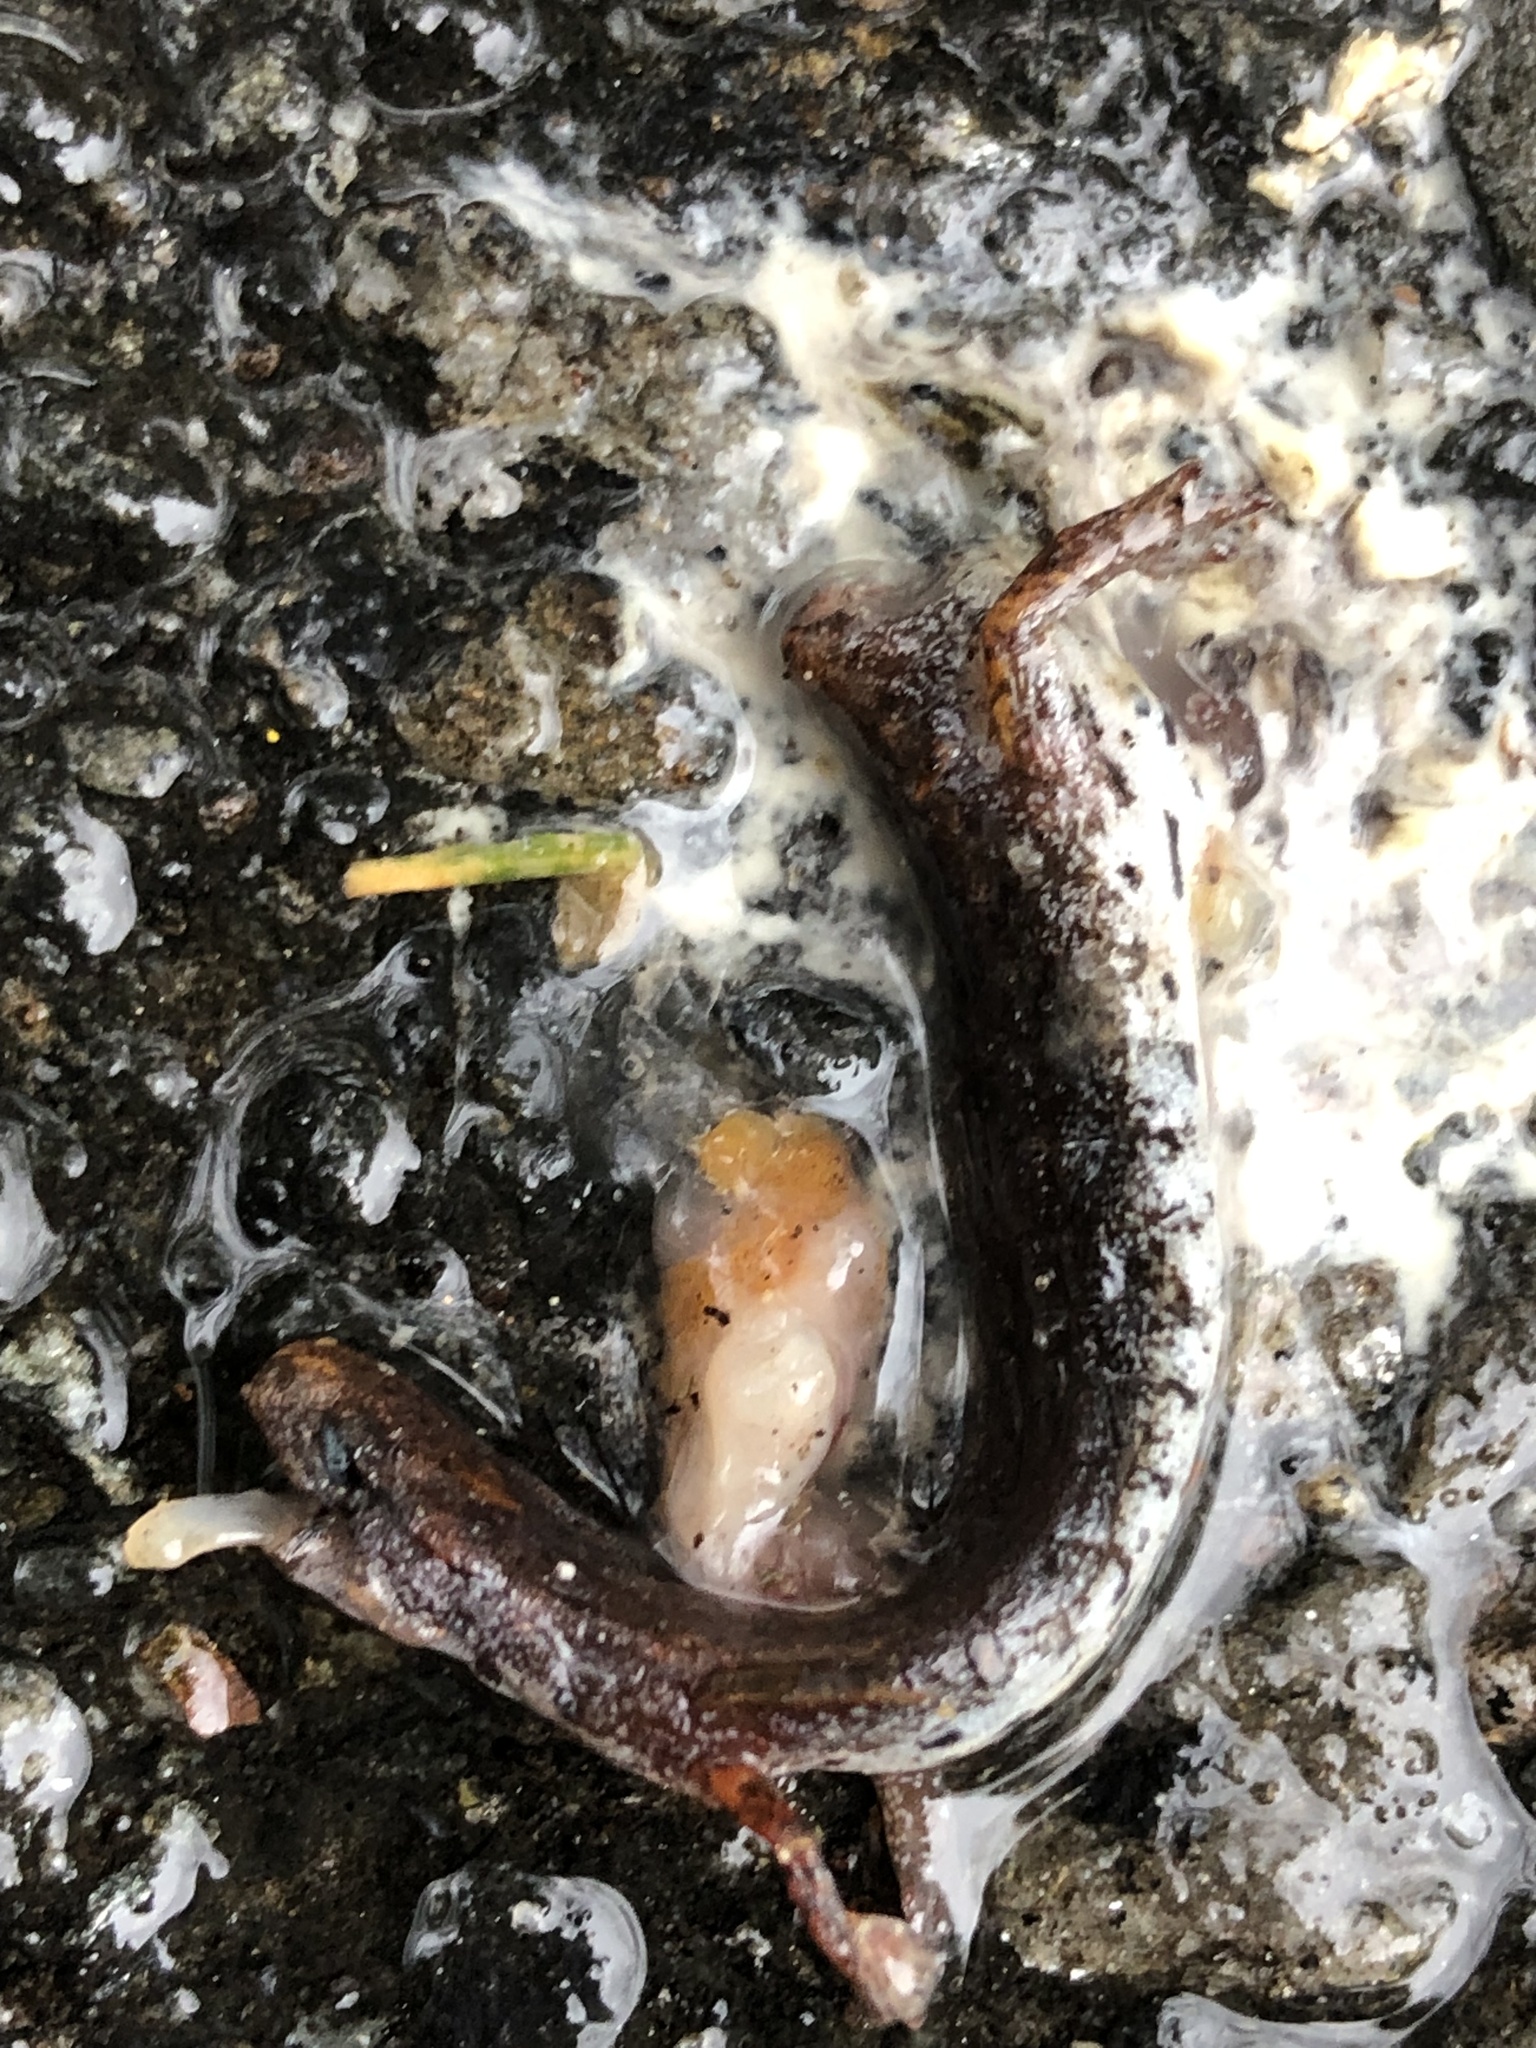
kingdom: Animalia
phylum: Chordata
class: Amphibia
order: Caudata
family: Plethodontidae
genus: Hemidactylium
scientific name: Hemidactylium scutatum
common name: Four-toed salamander
